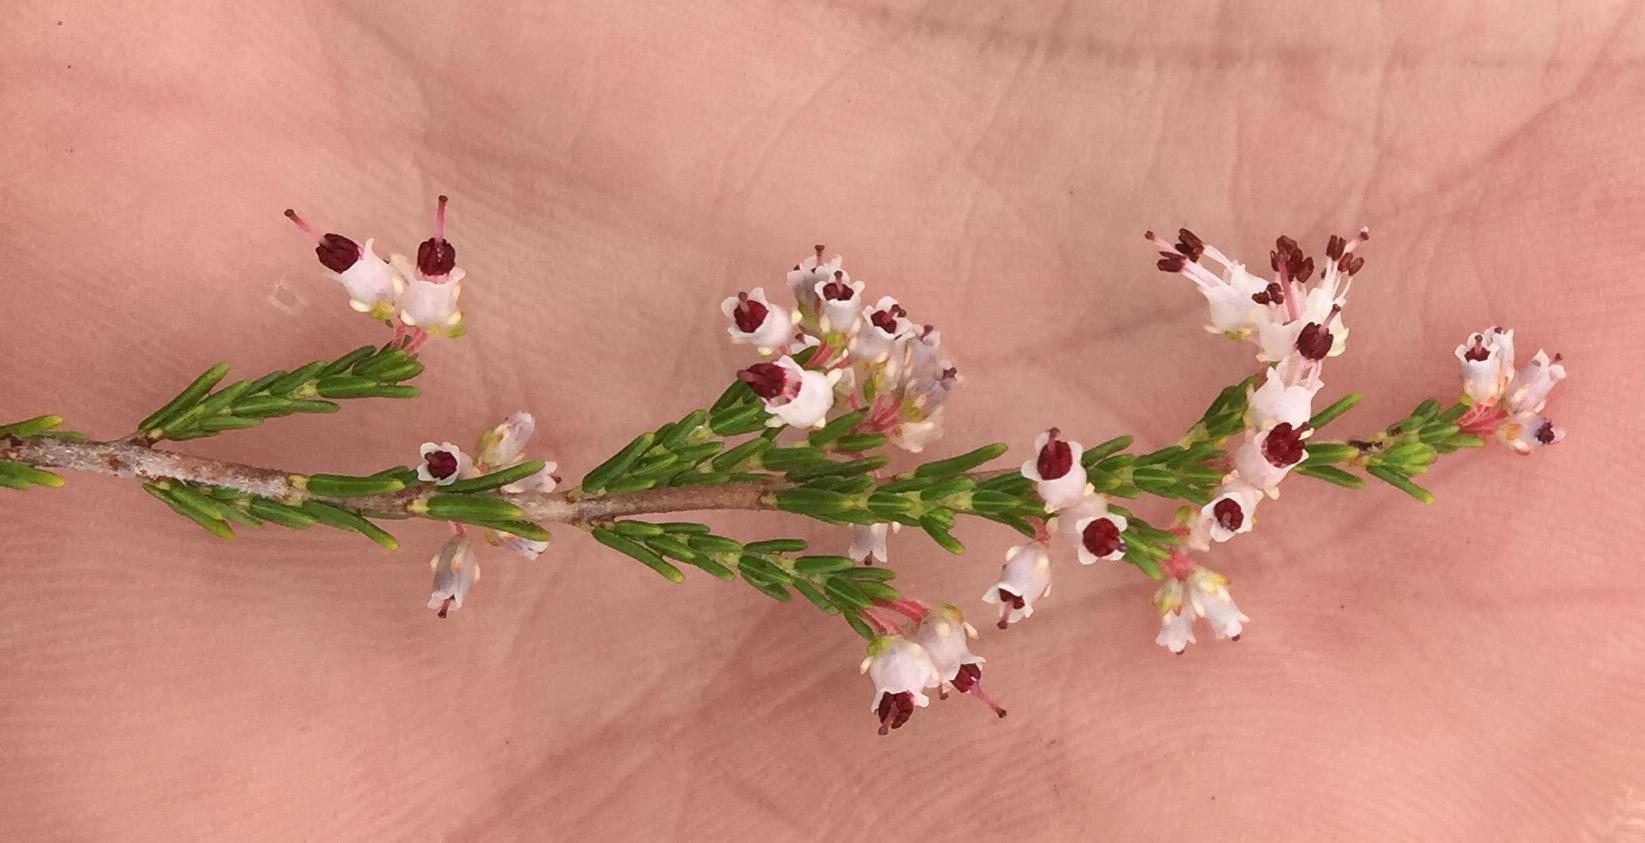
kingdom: Plantae
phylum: Tracheophyta
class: Magnoliopsida
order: Ericales
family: Ericaceae
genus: Erica
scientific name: Erica demissa
